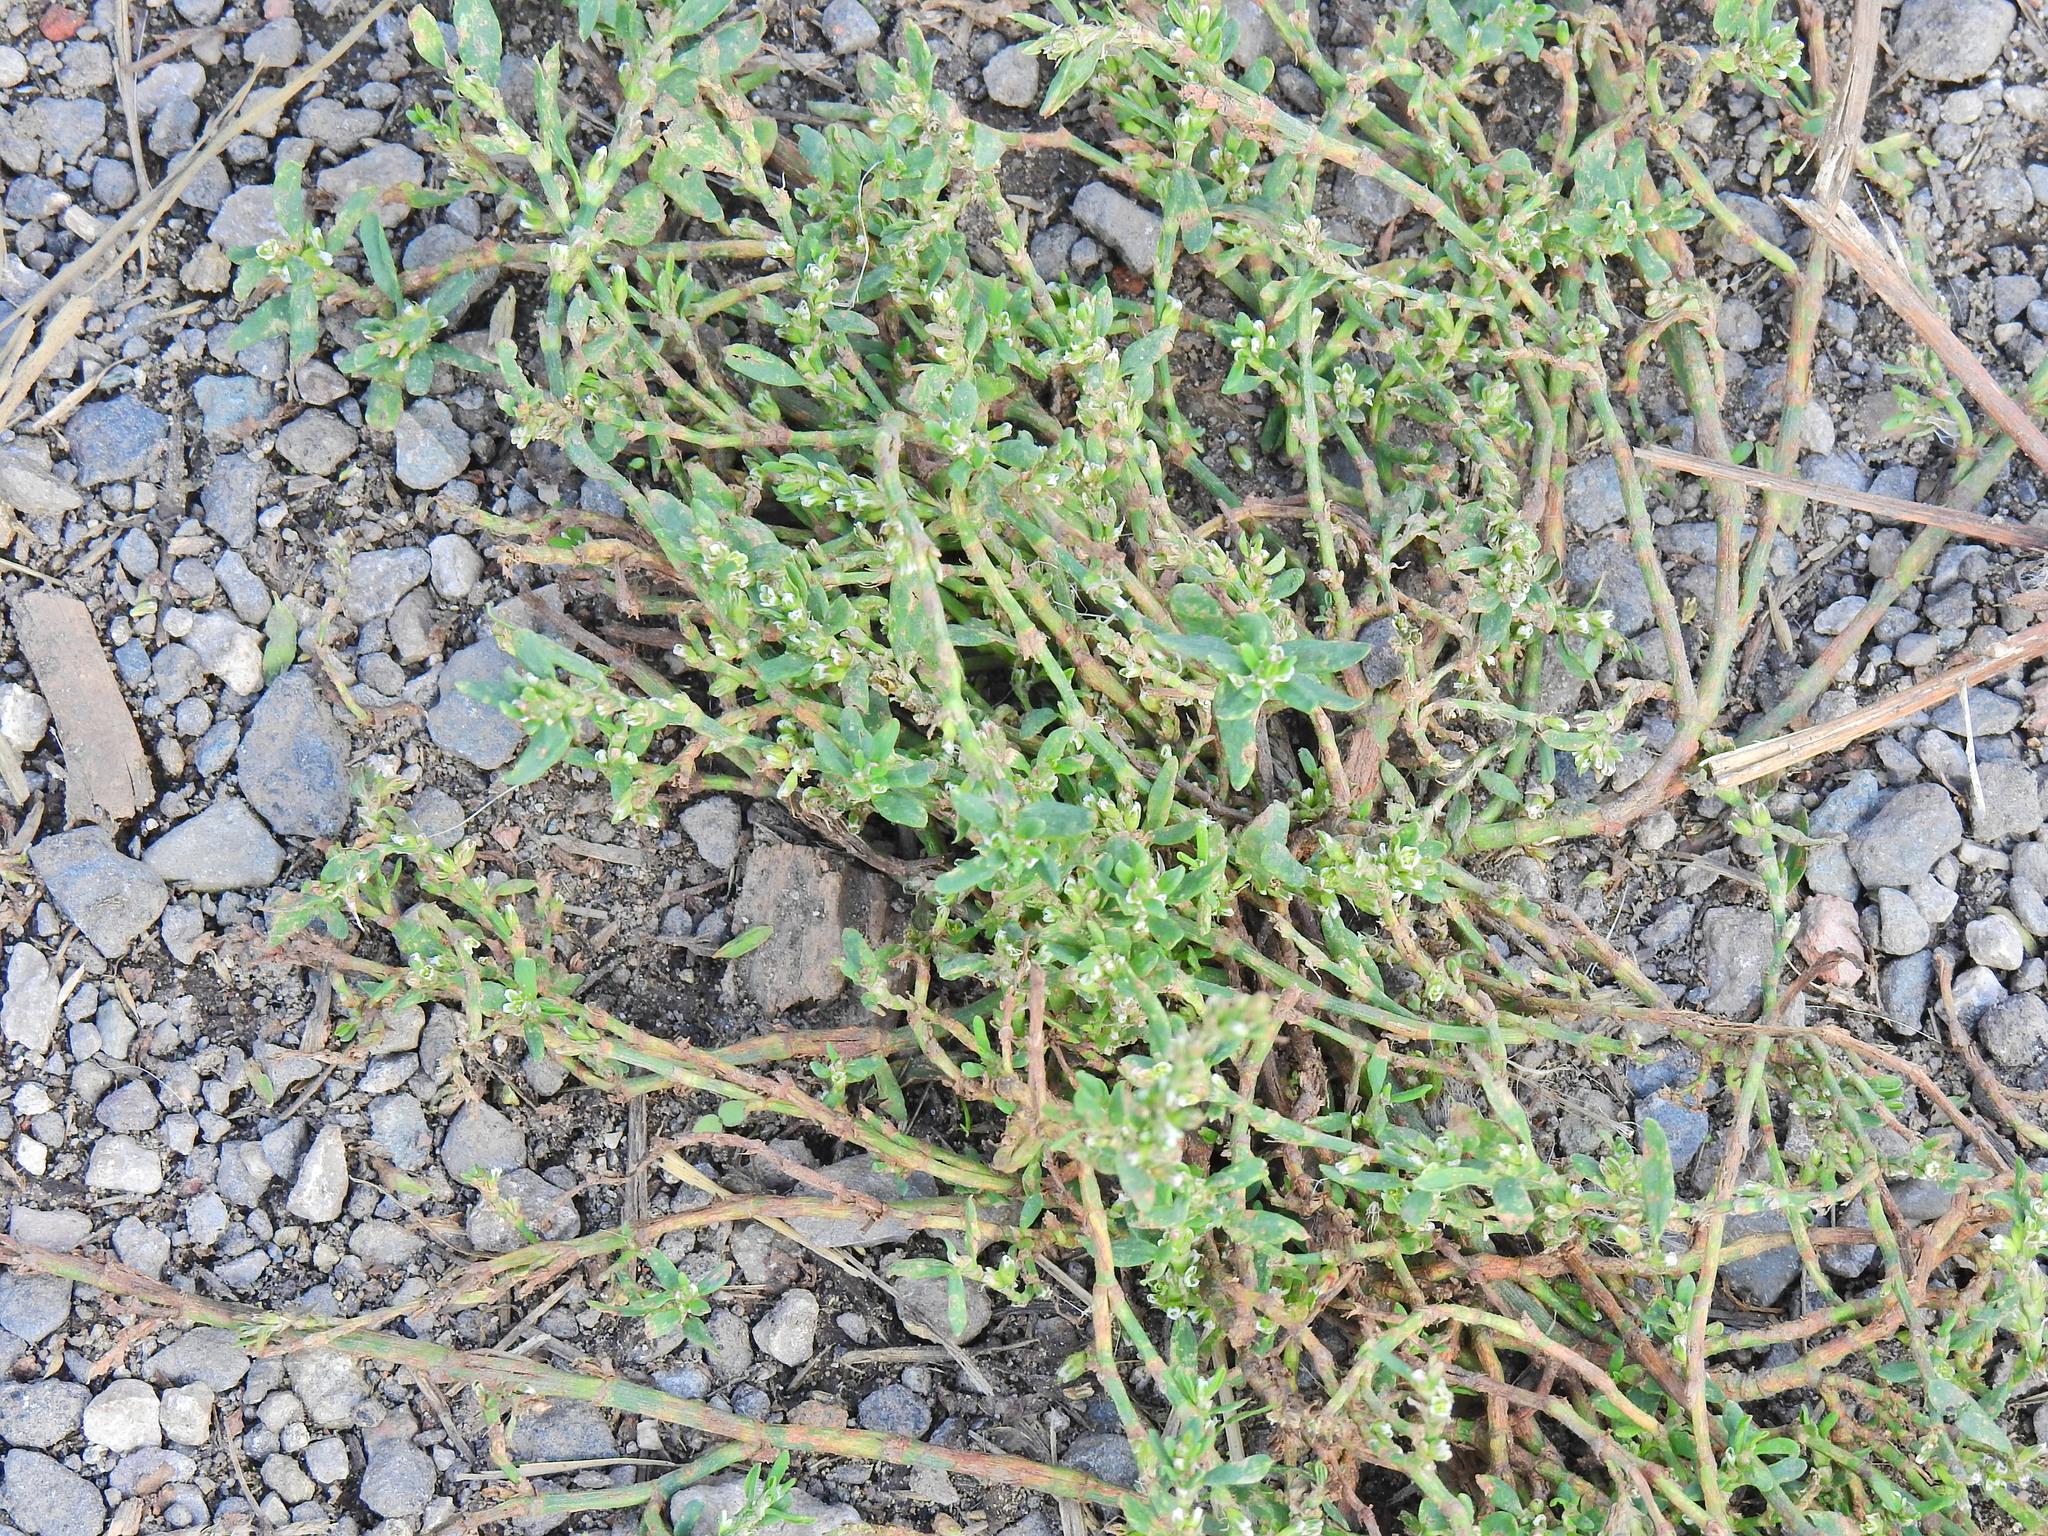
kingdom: Plantae
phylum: Tracheophyta
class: Magnoliopsida
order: Caryophyllales
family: Polygonaceae
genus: Polygonum
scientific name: Polygonum aviculare
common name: Prostrate knotweed
